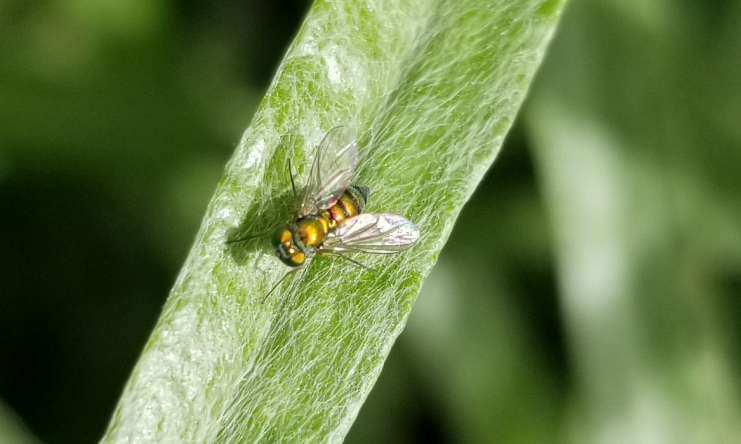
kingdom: Animalia
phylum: Arthropoda
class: Insecta
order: Diptera
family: Dolichopodidae
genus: Condylostylus
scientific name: Condylostylus
